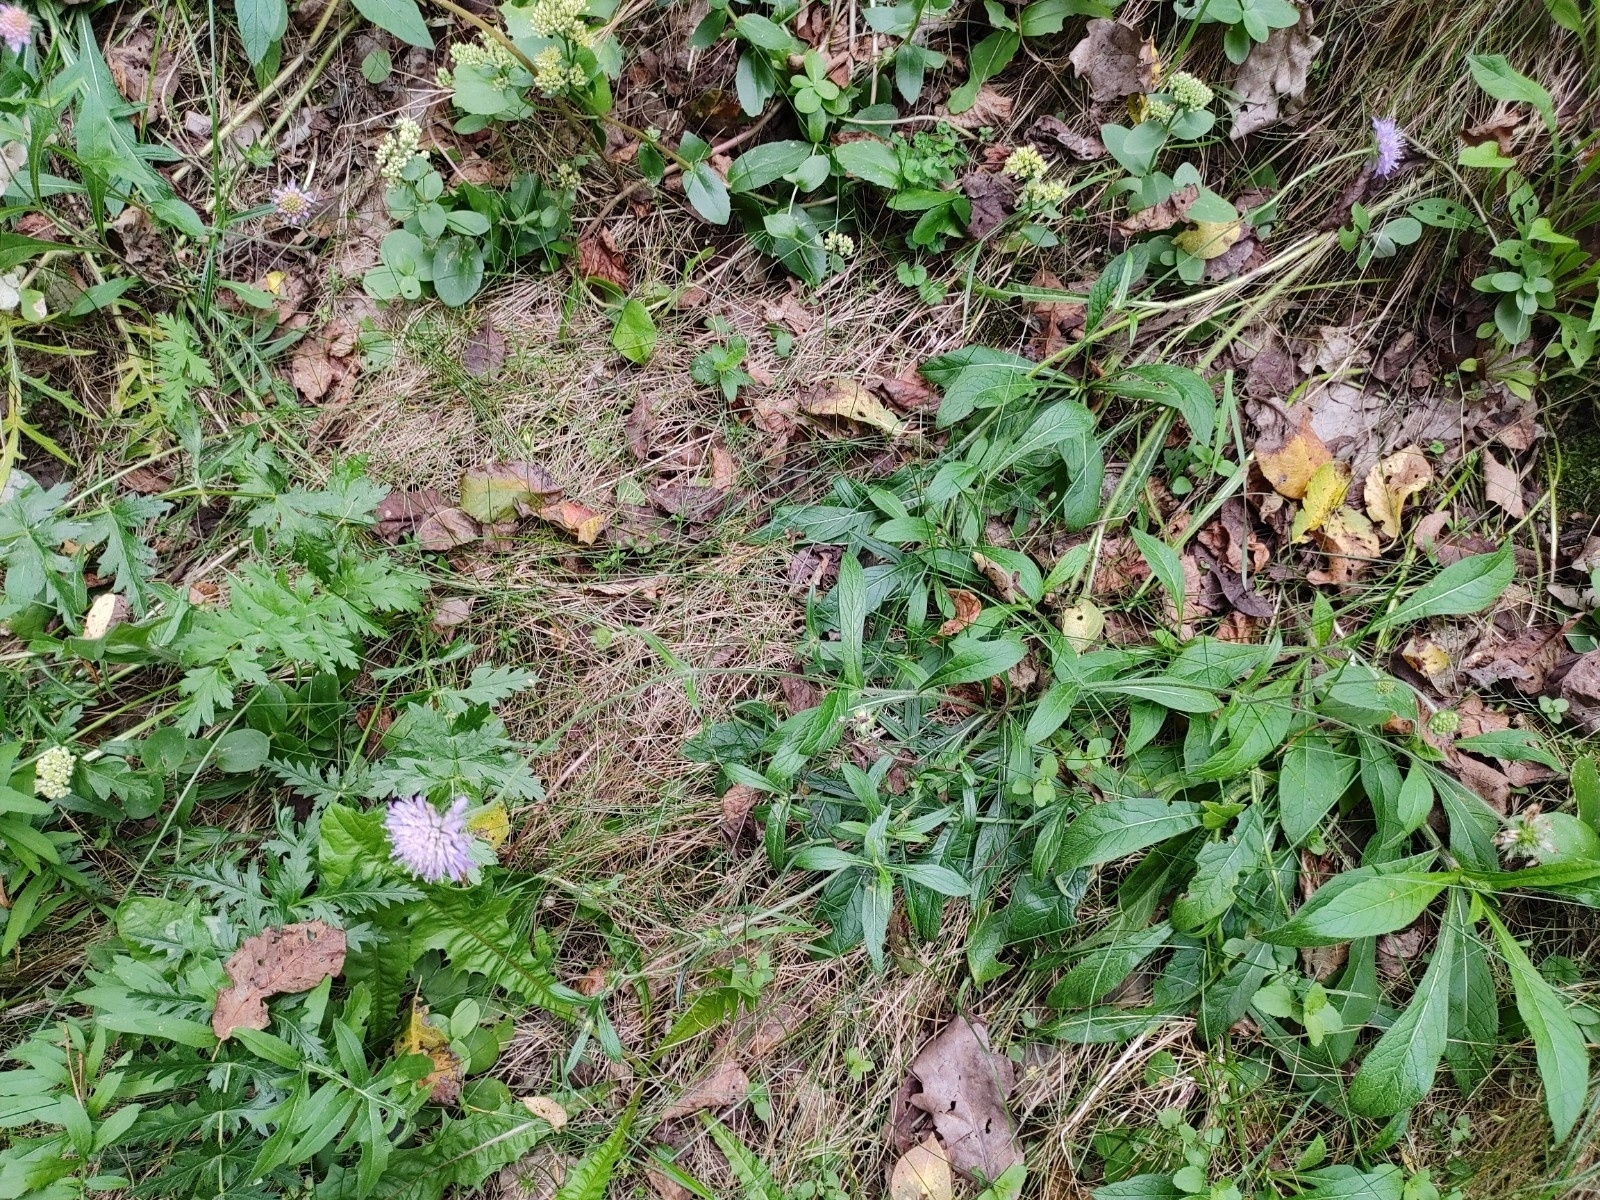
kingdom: Plantae
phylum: Tracheophyta
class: Magnoliopsida
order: Dipsacales
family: Caprifoliaceae
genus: Knautia
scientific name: Knautia arvensis
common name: Field scabiosa
